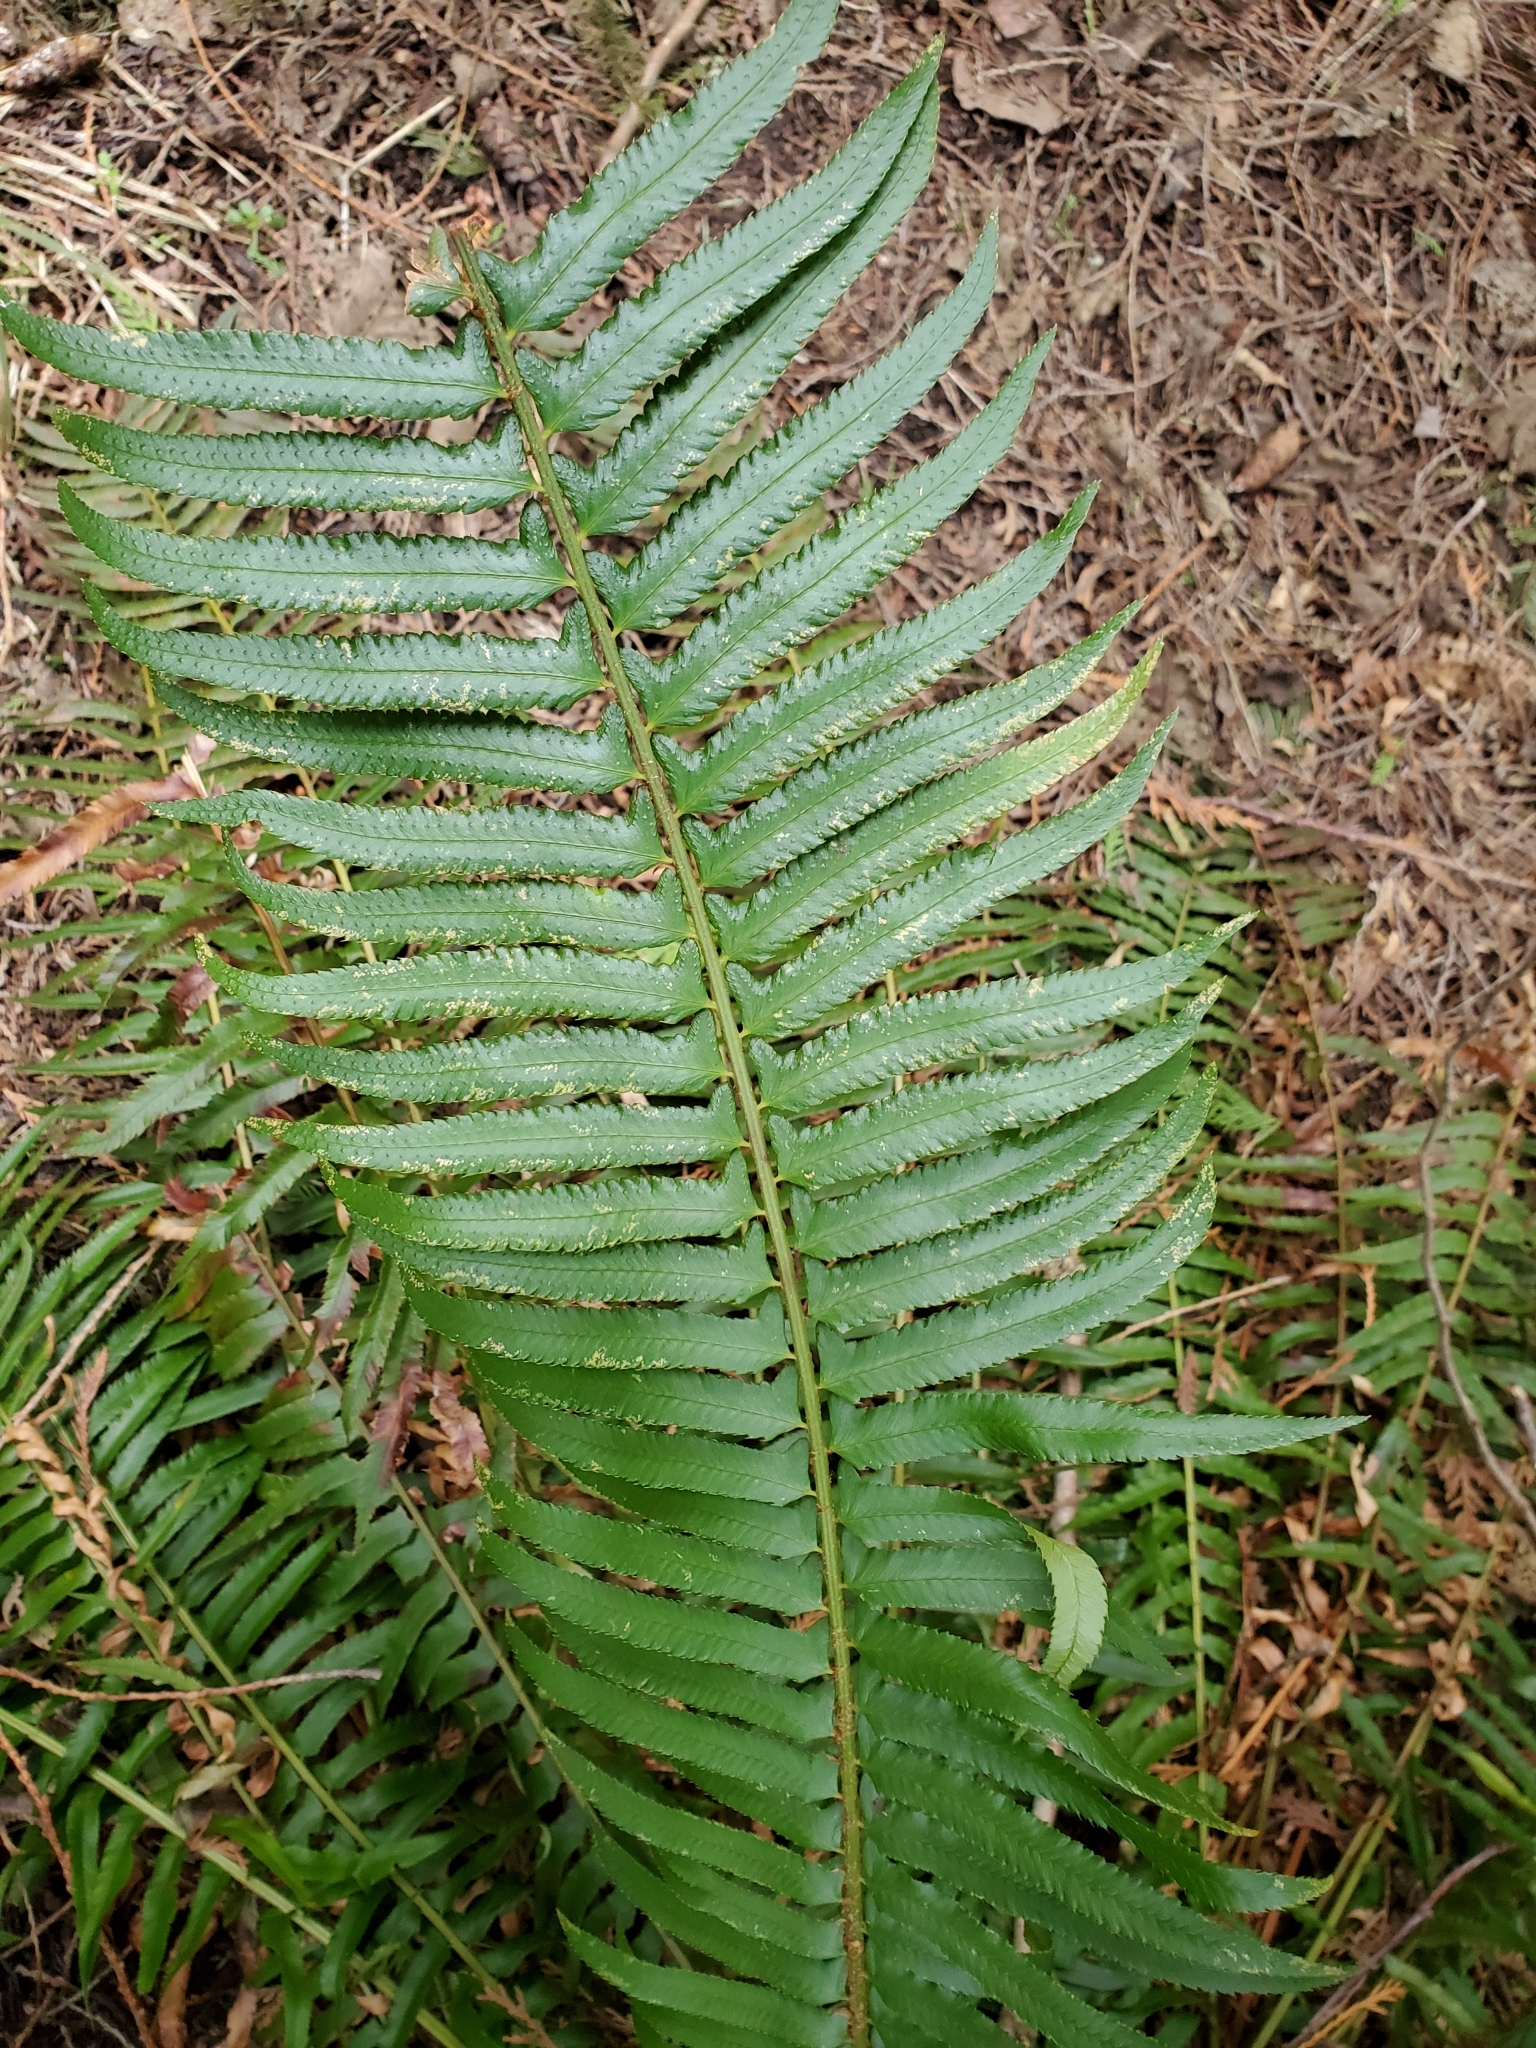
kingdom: Plantae
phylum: Tracheophyta
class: Polypodiopsida
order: Polypodiales
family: Dryopteridaceae
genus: Polystichum
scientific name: Polystichum munitum
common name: Western sword-fern
